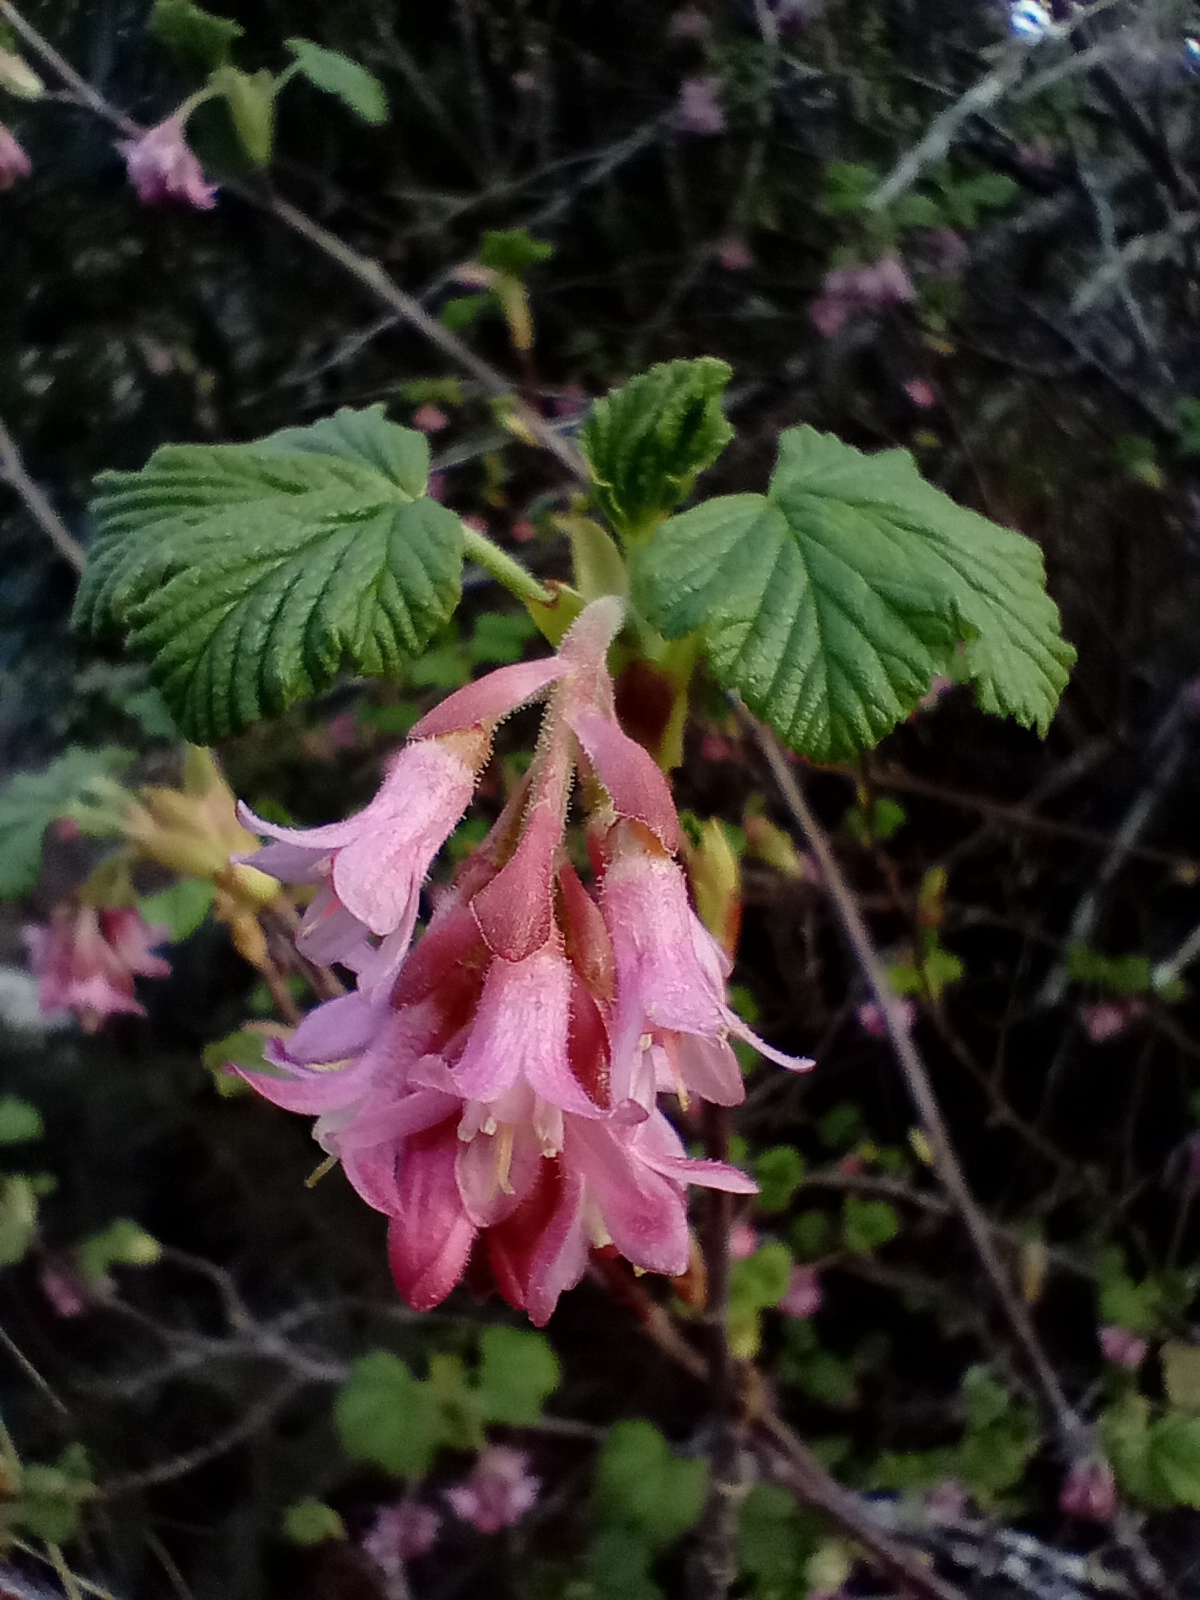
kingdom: Plantae
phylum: Tracheophyta
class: Magnoliopsida
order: Saxifragales
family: Grossulariaceae
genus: Ribes
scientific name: Ribes sanguineum
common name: Flowering currant
